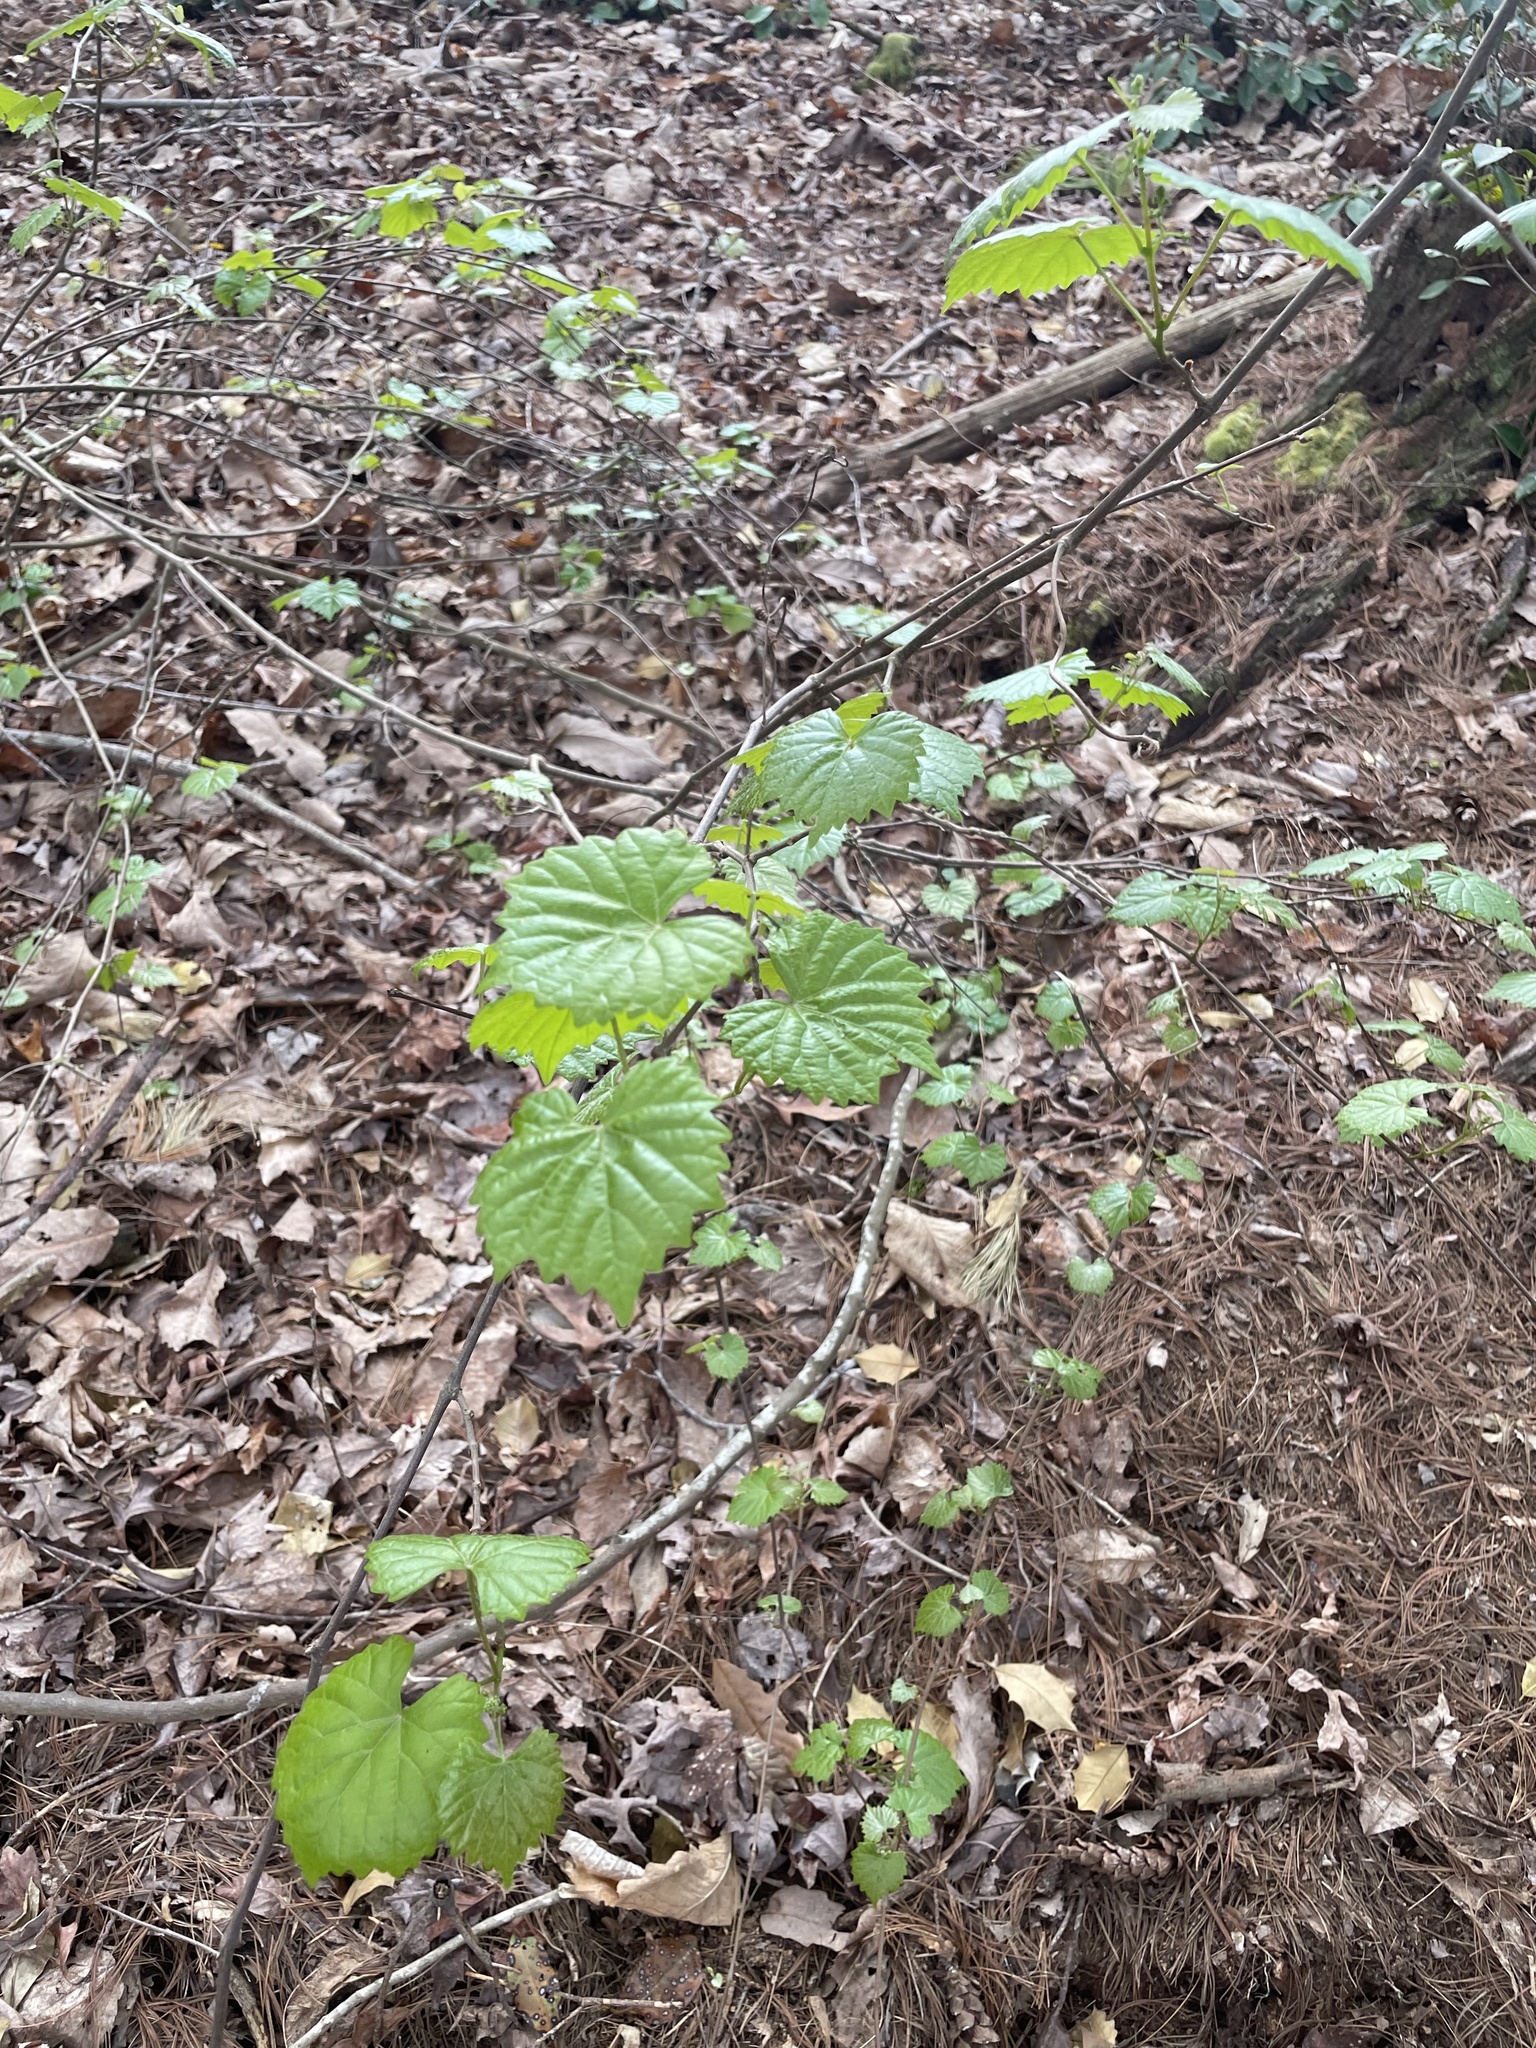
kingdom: Plantae
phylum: Tracheophyta
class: Magnoliopsida
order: Vitales
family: Vitaceae
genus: Vitis
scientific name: Vitis rotundifolia
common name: Muscadine grape
